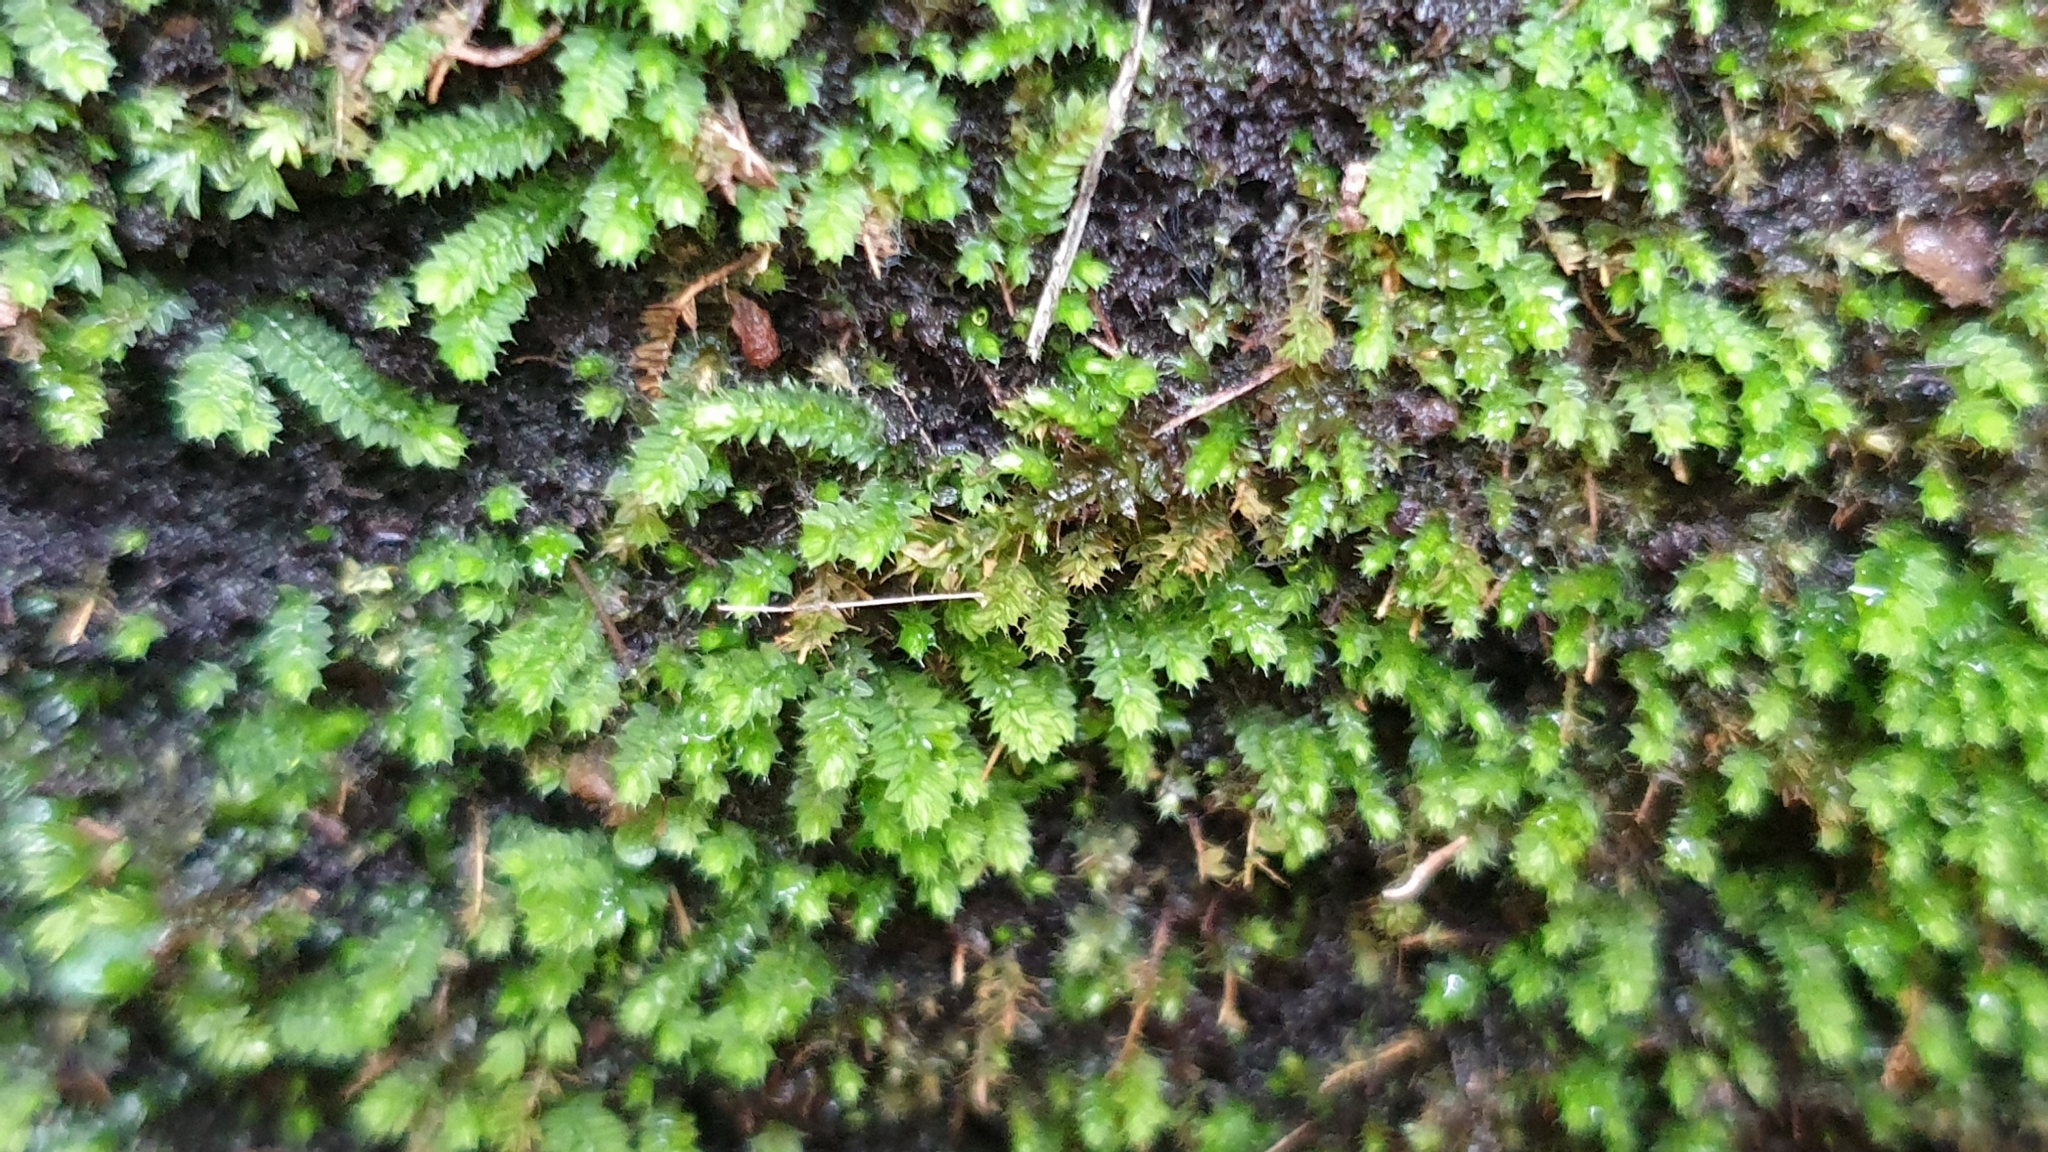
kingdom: Plantae
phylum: Bryophyta
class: Bryopsida
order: Hypnodendrales
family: Racopilaceae
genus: Racopilum
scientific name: Racopilum cuspidigerum
